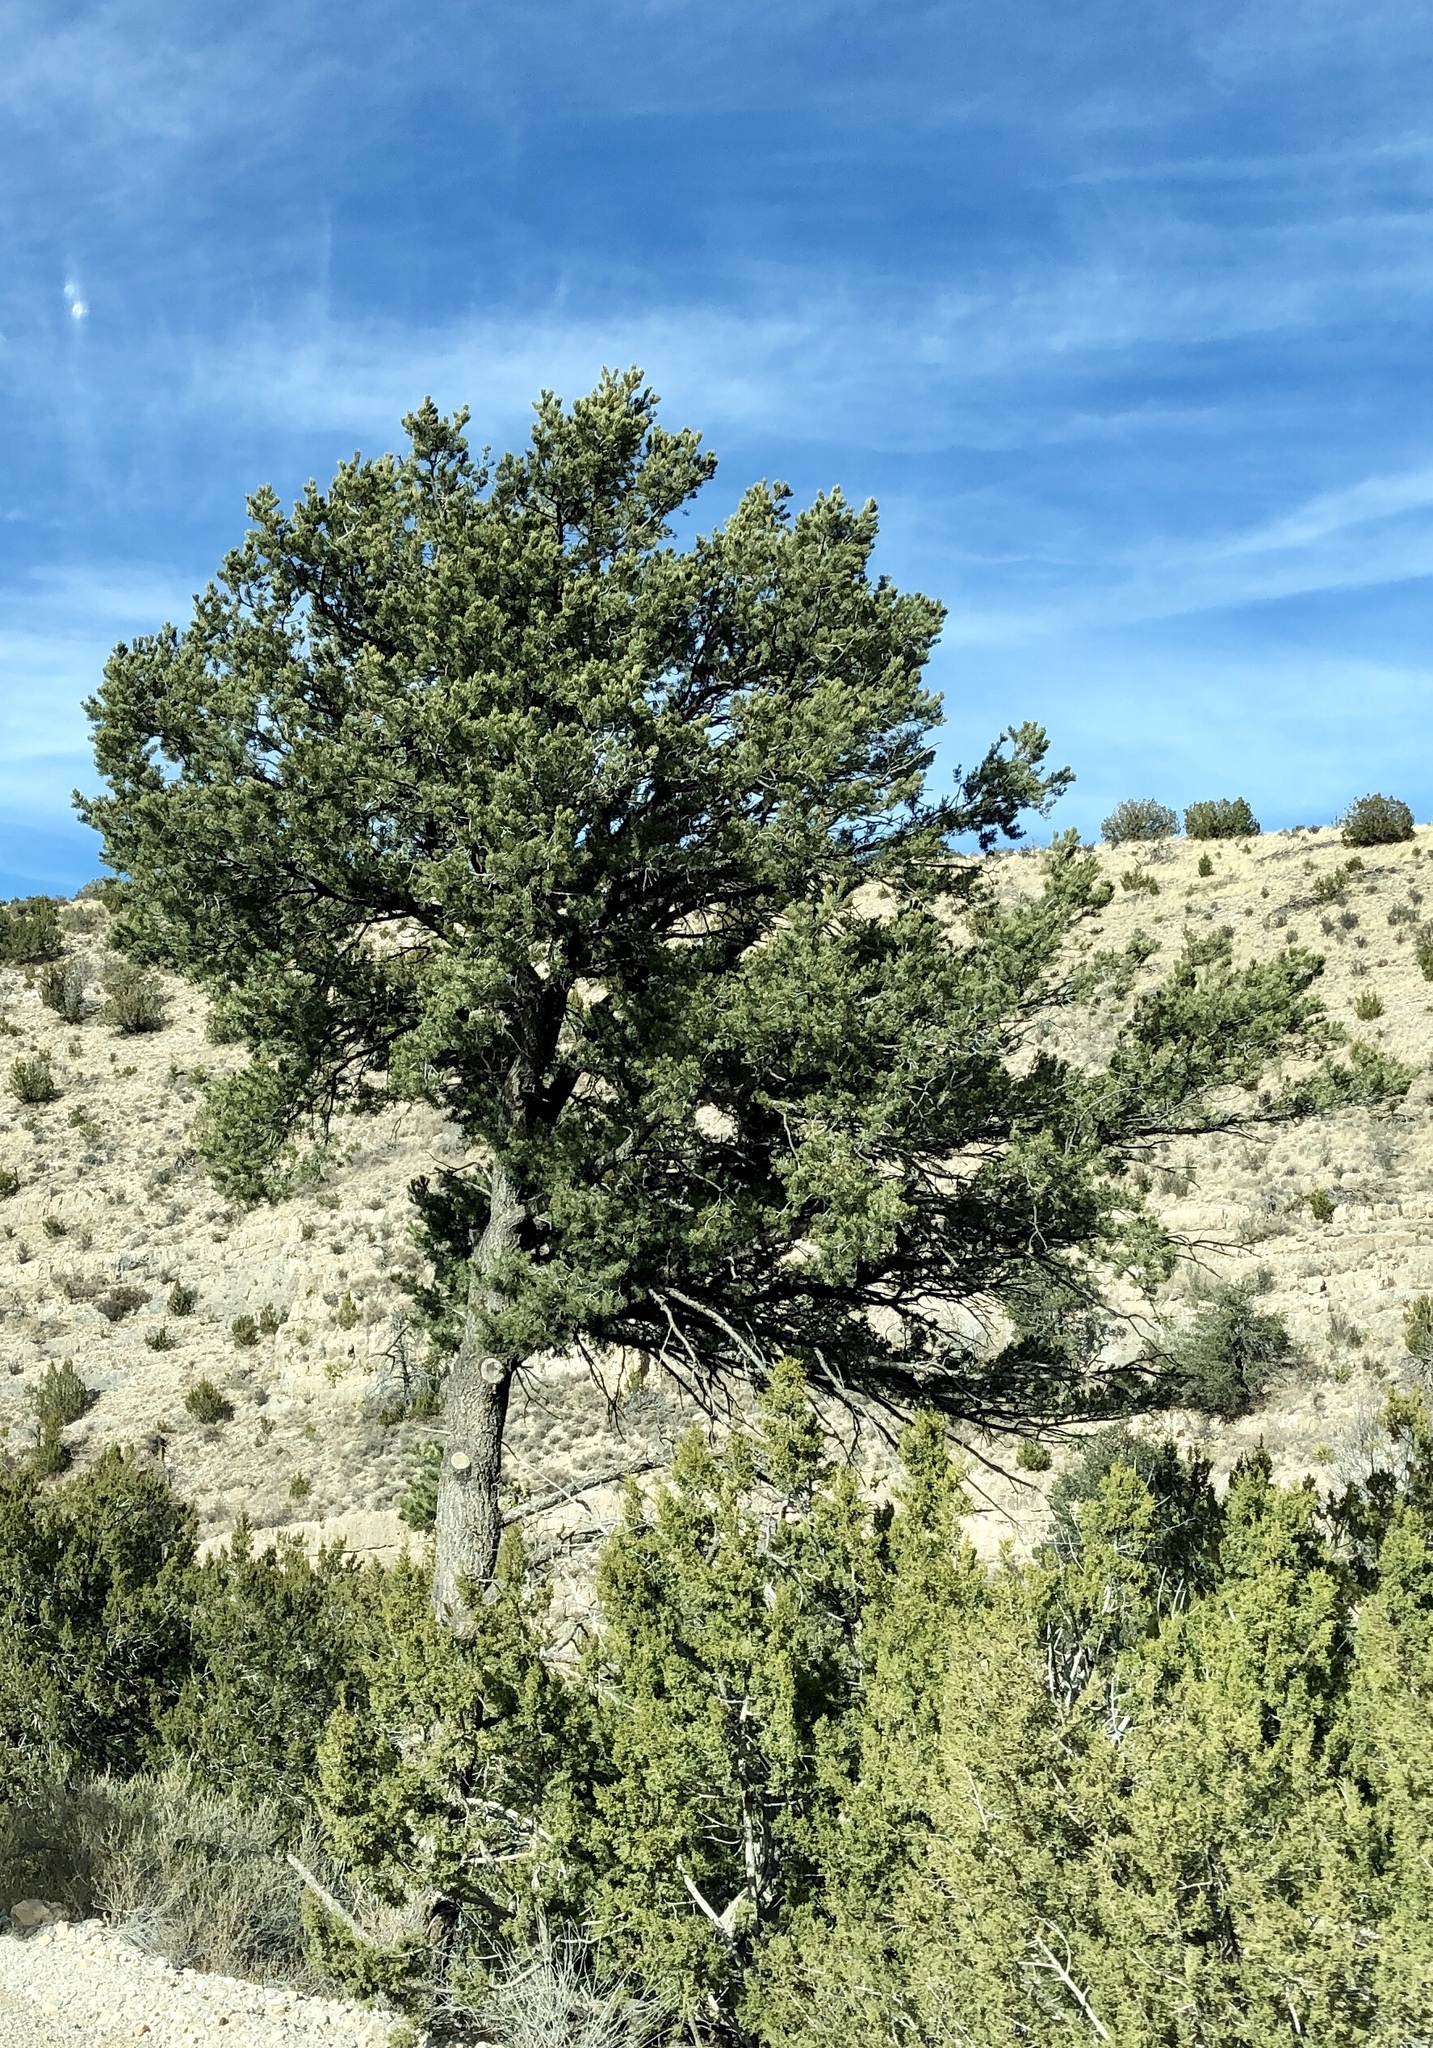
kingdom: Plantae
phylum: Tracheophyta
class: Pinopsida
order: Pinales
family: Pinaceae
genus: Pinus
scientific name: Pinus edulis
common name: Colorado pinyon
